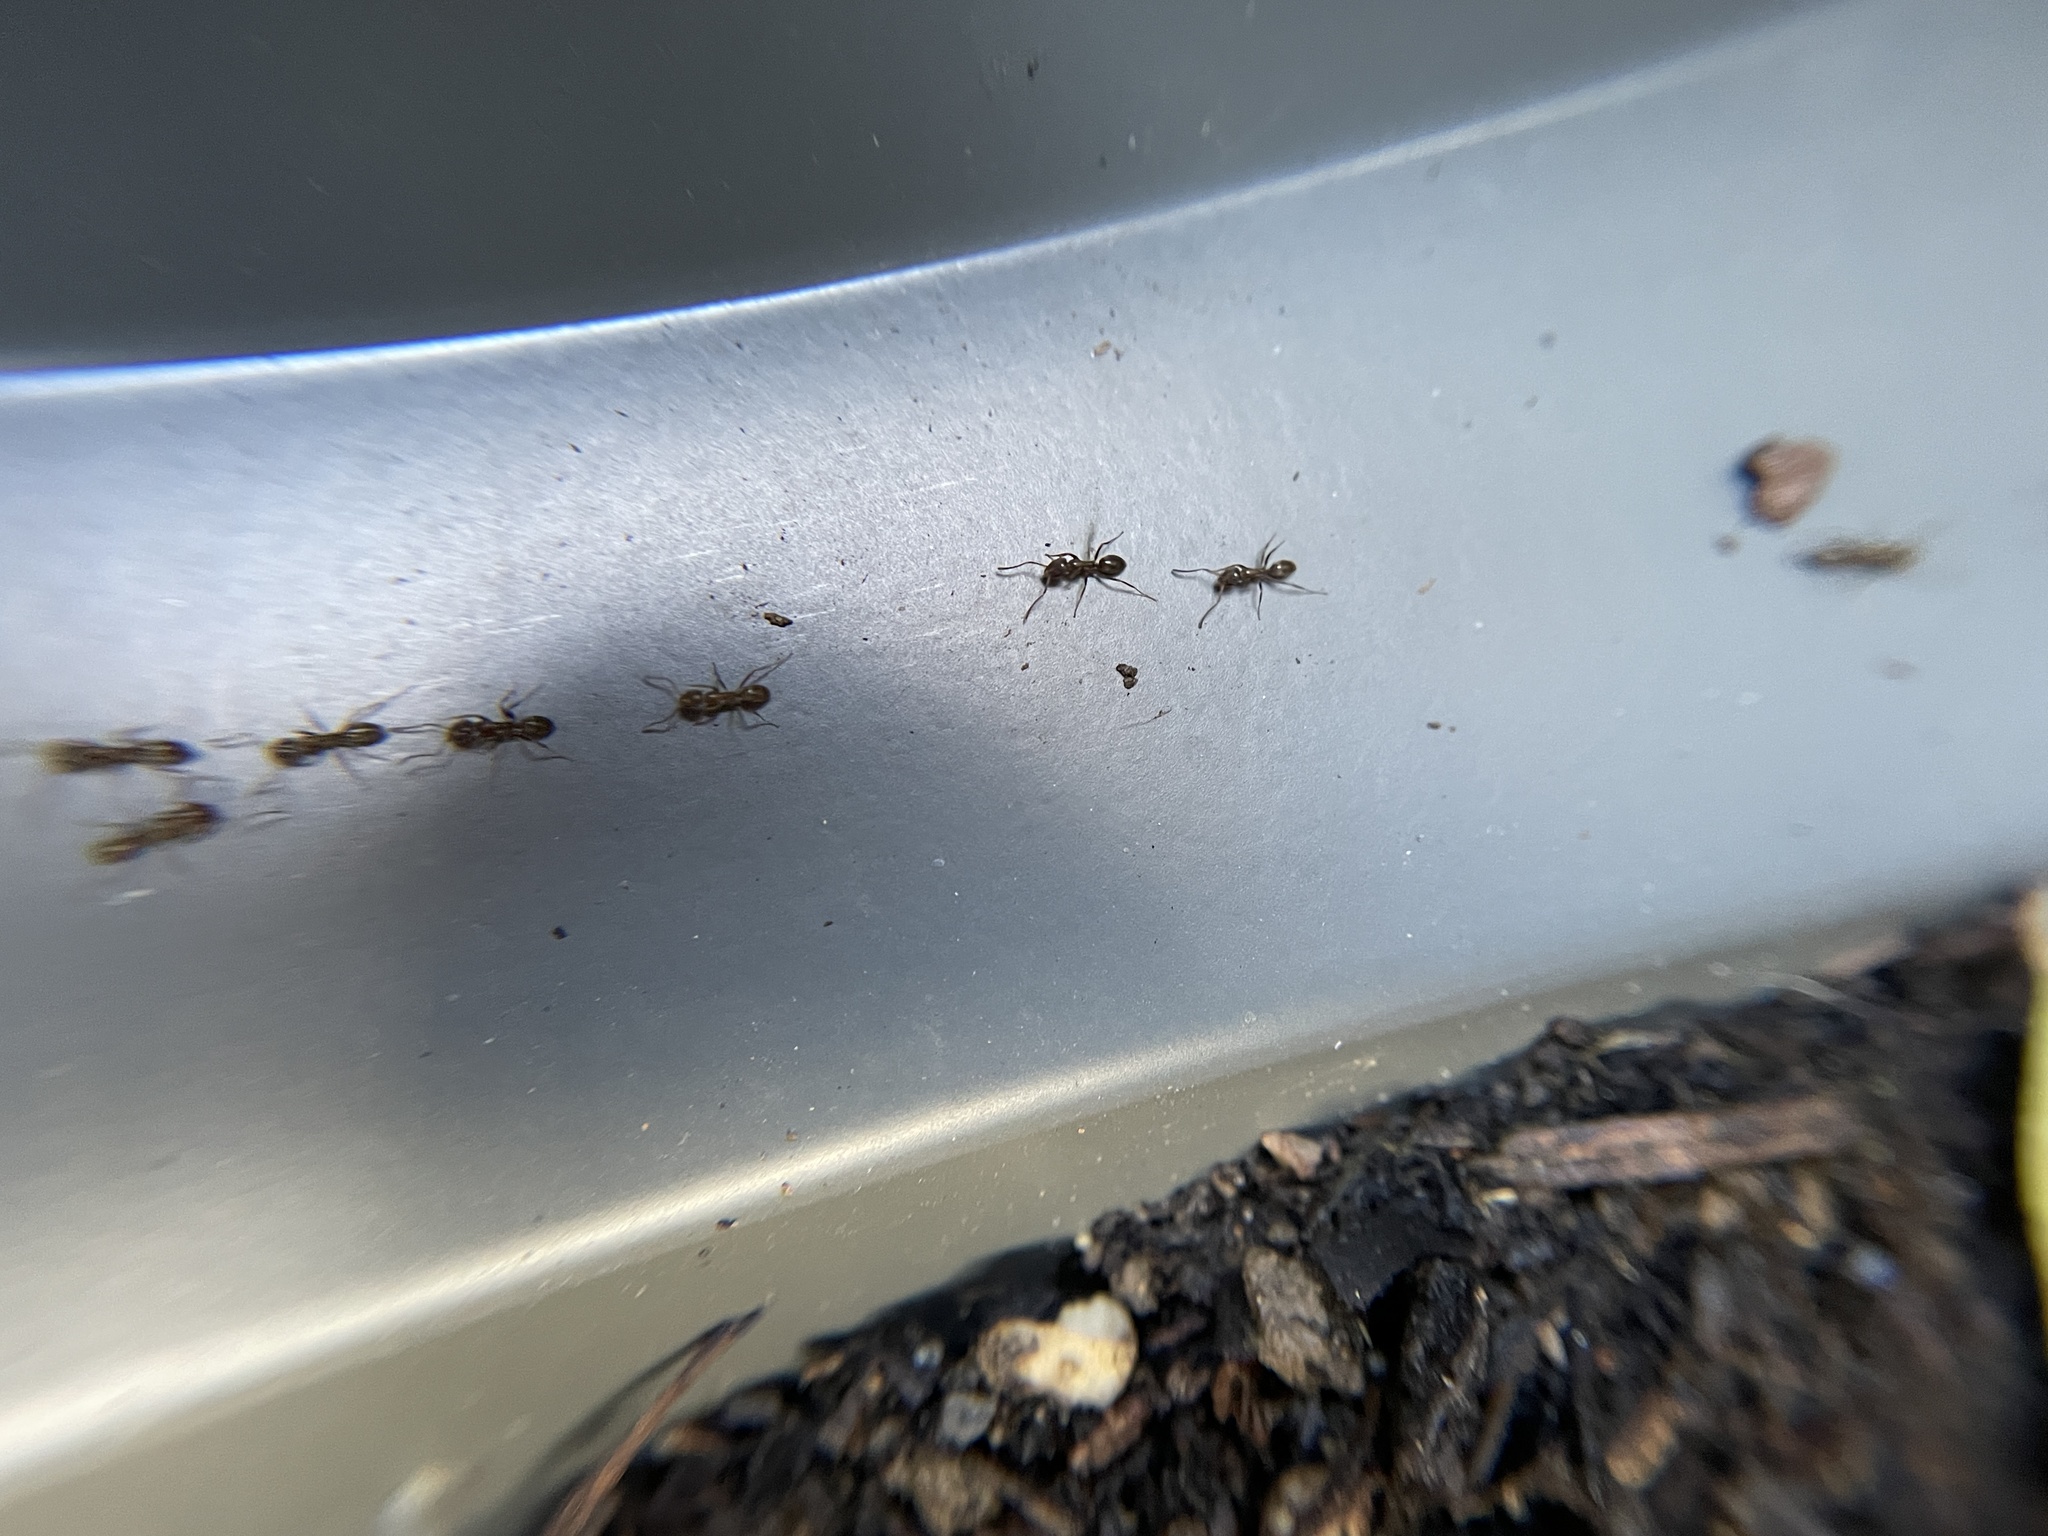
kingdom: Animalia
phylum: Arthropoda
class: Insecta
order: Hymenoptera
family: Formicidae
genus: Linepithema
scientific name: Linepithema humile
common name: Argentine ant
